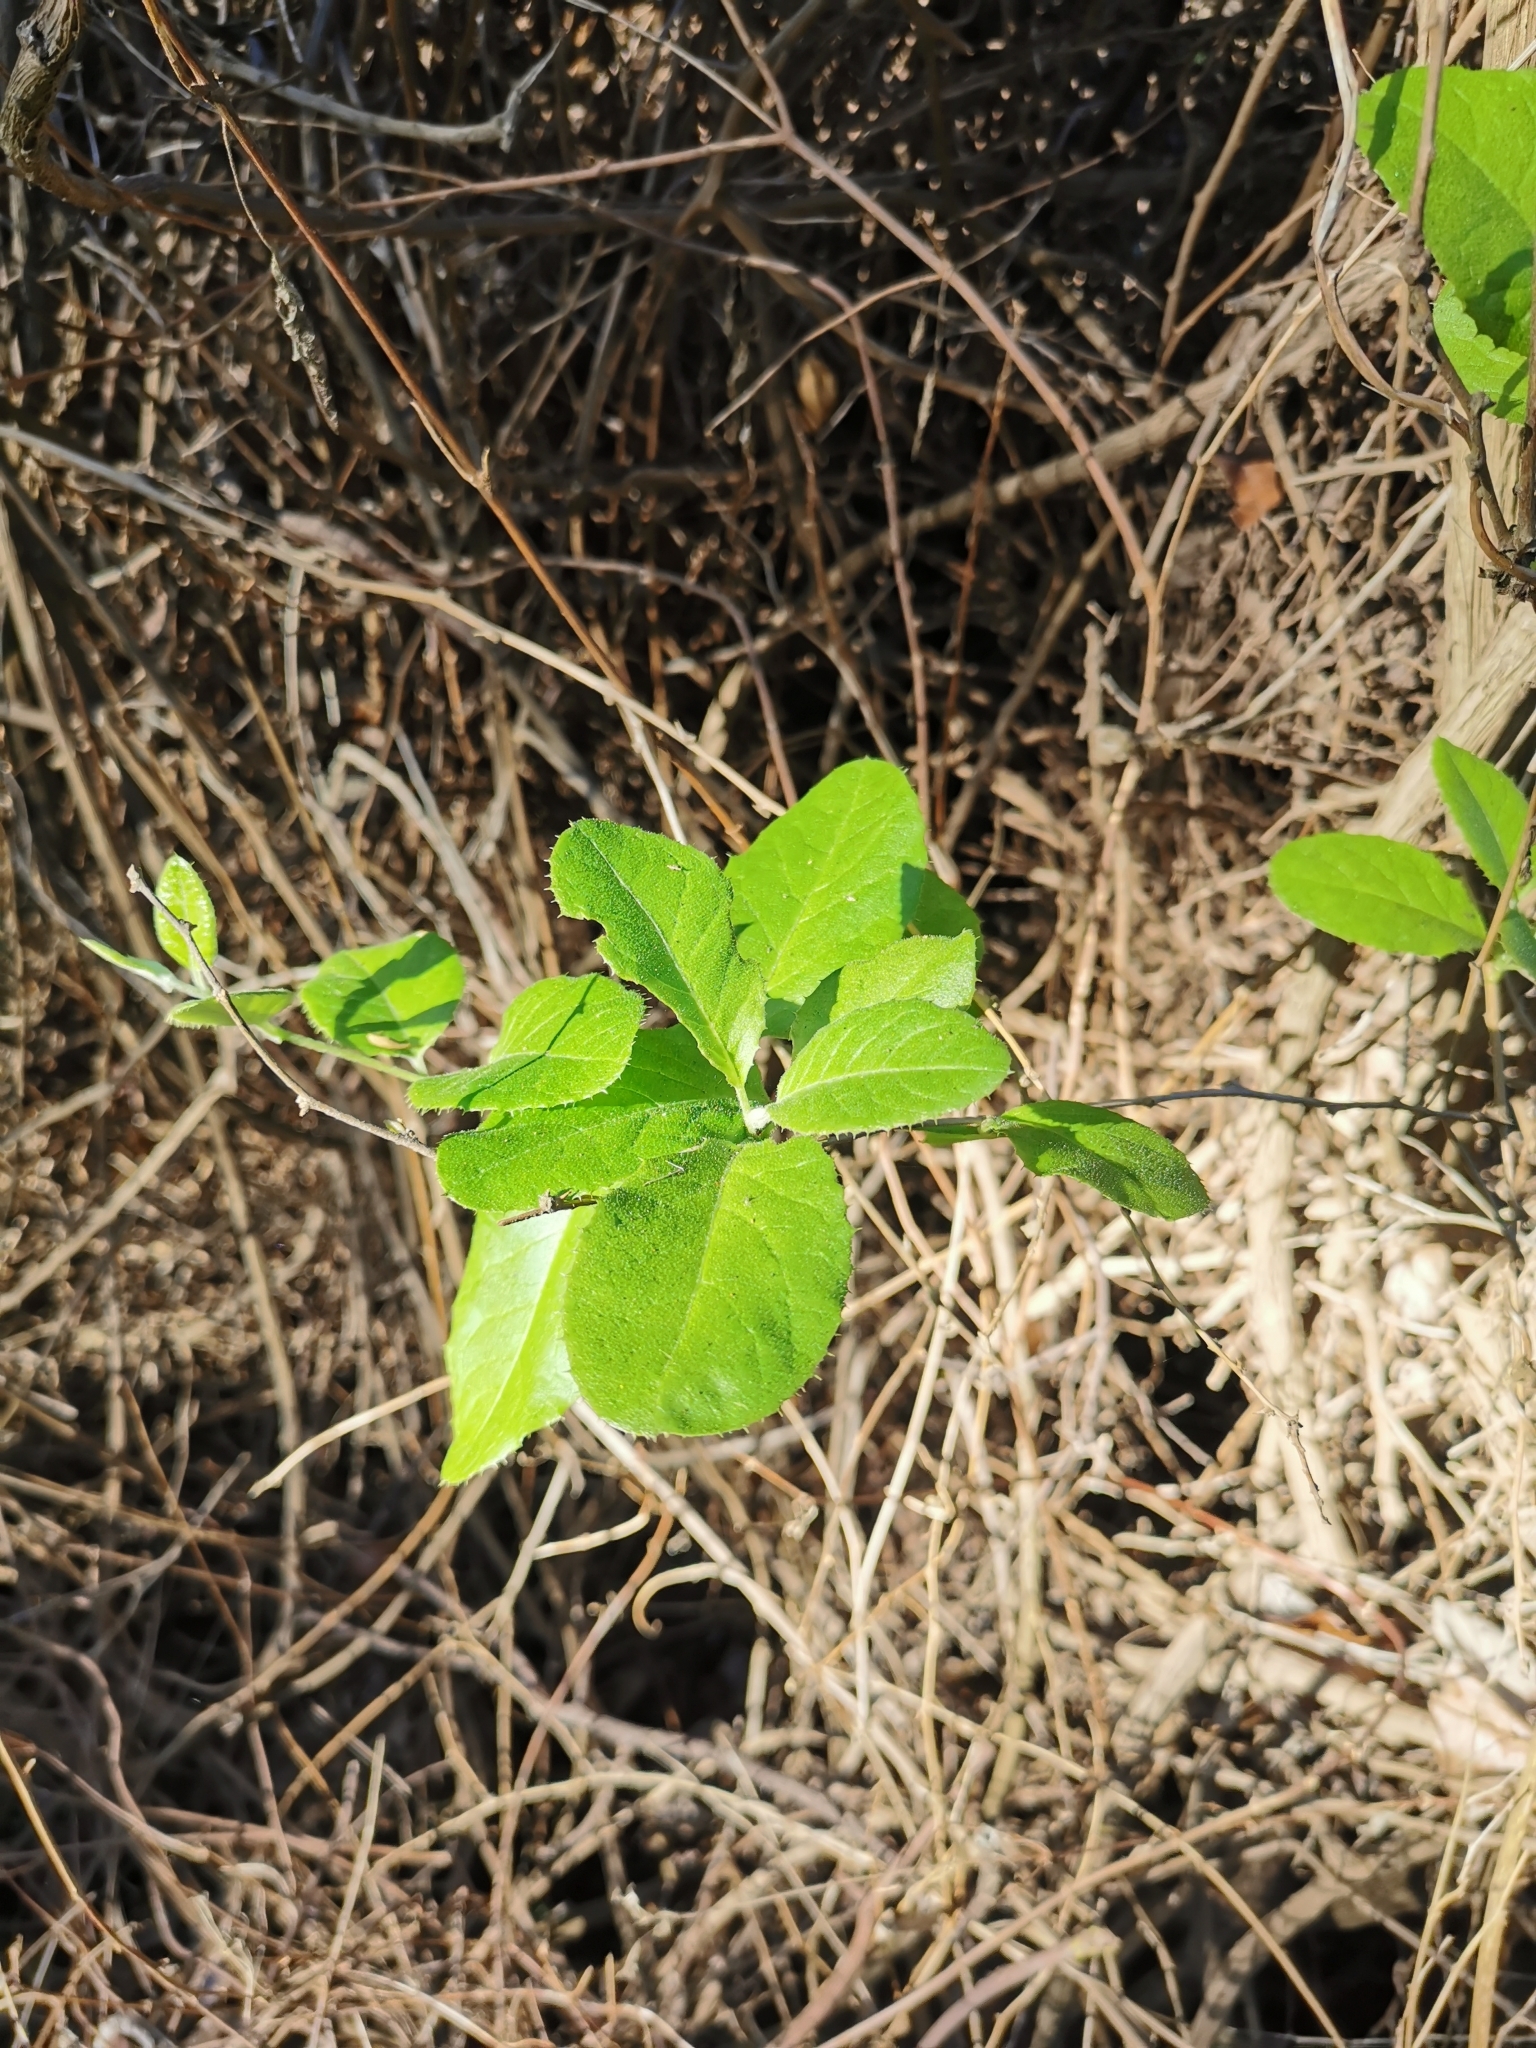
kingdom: Plantae
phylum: Tracheophyta
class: Magnoliopsida
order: Asterales
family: Asteraceae
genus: Proustia
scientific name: Proustia pyrifolia
